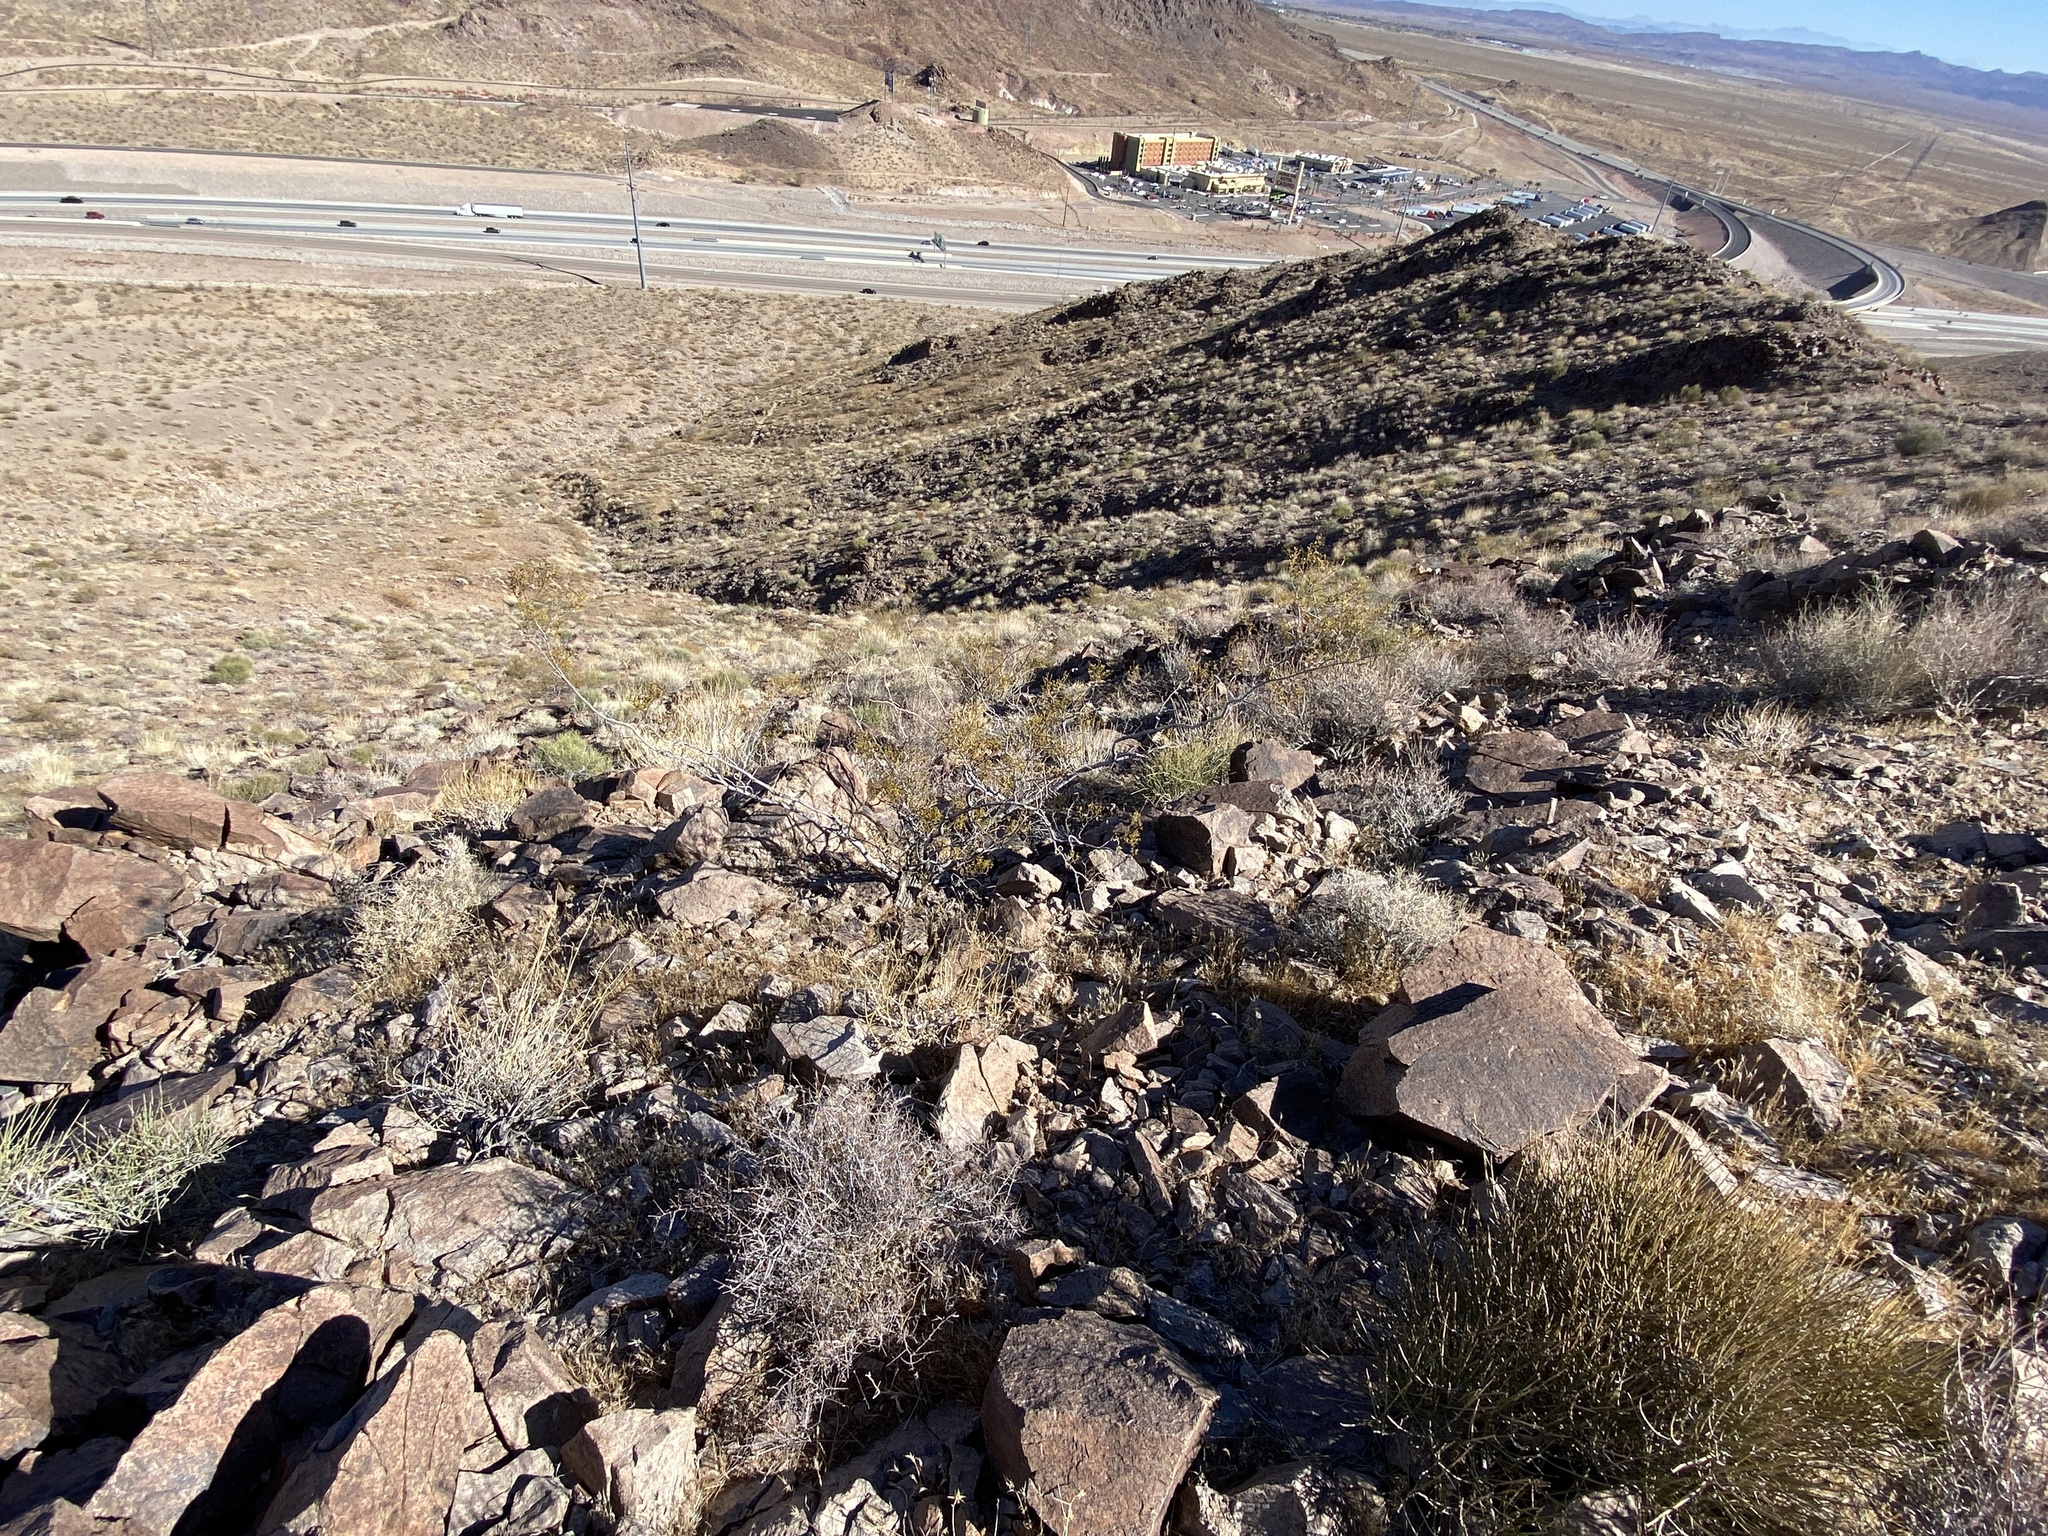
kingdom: Plantae
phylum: Tracheophyta
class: Magnoliopsida
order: Caryophyllales
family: Cactaceae
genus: Ferocactus
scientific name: Ferocactus cylindraceus
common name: California barrel cactus
